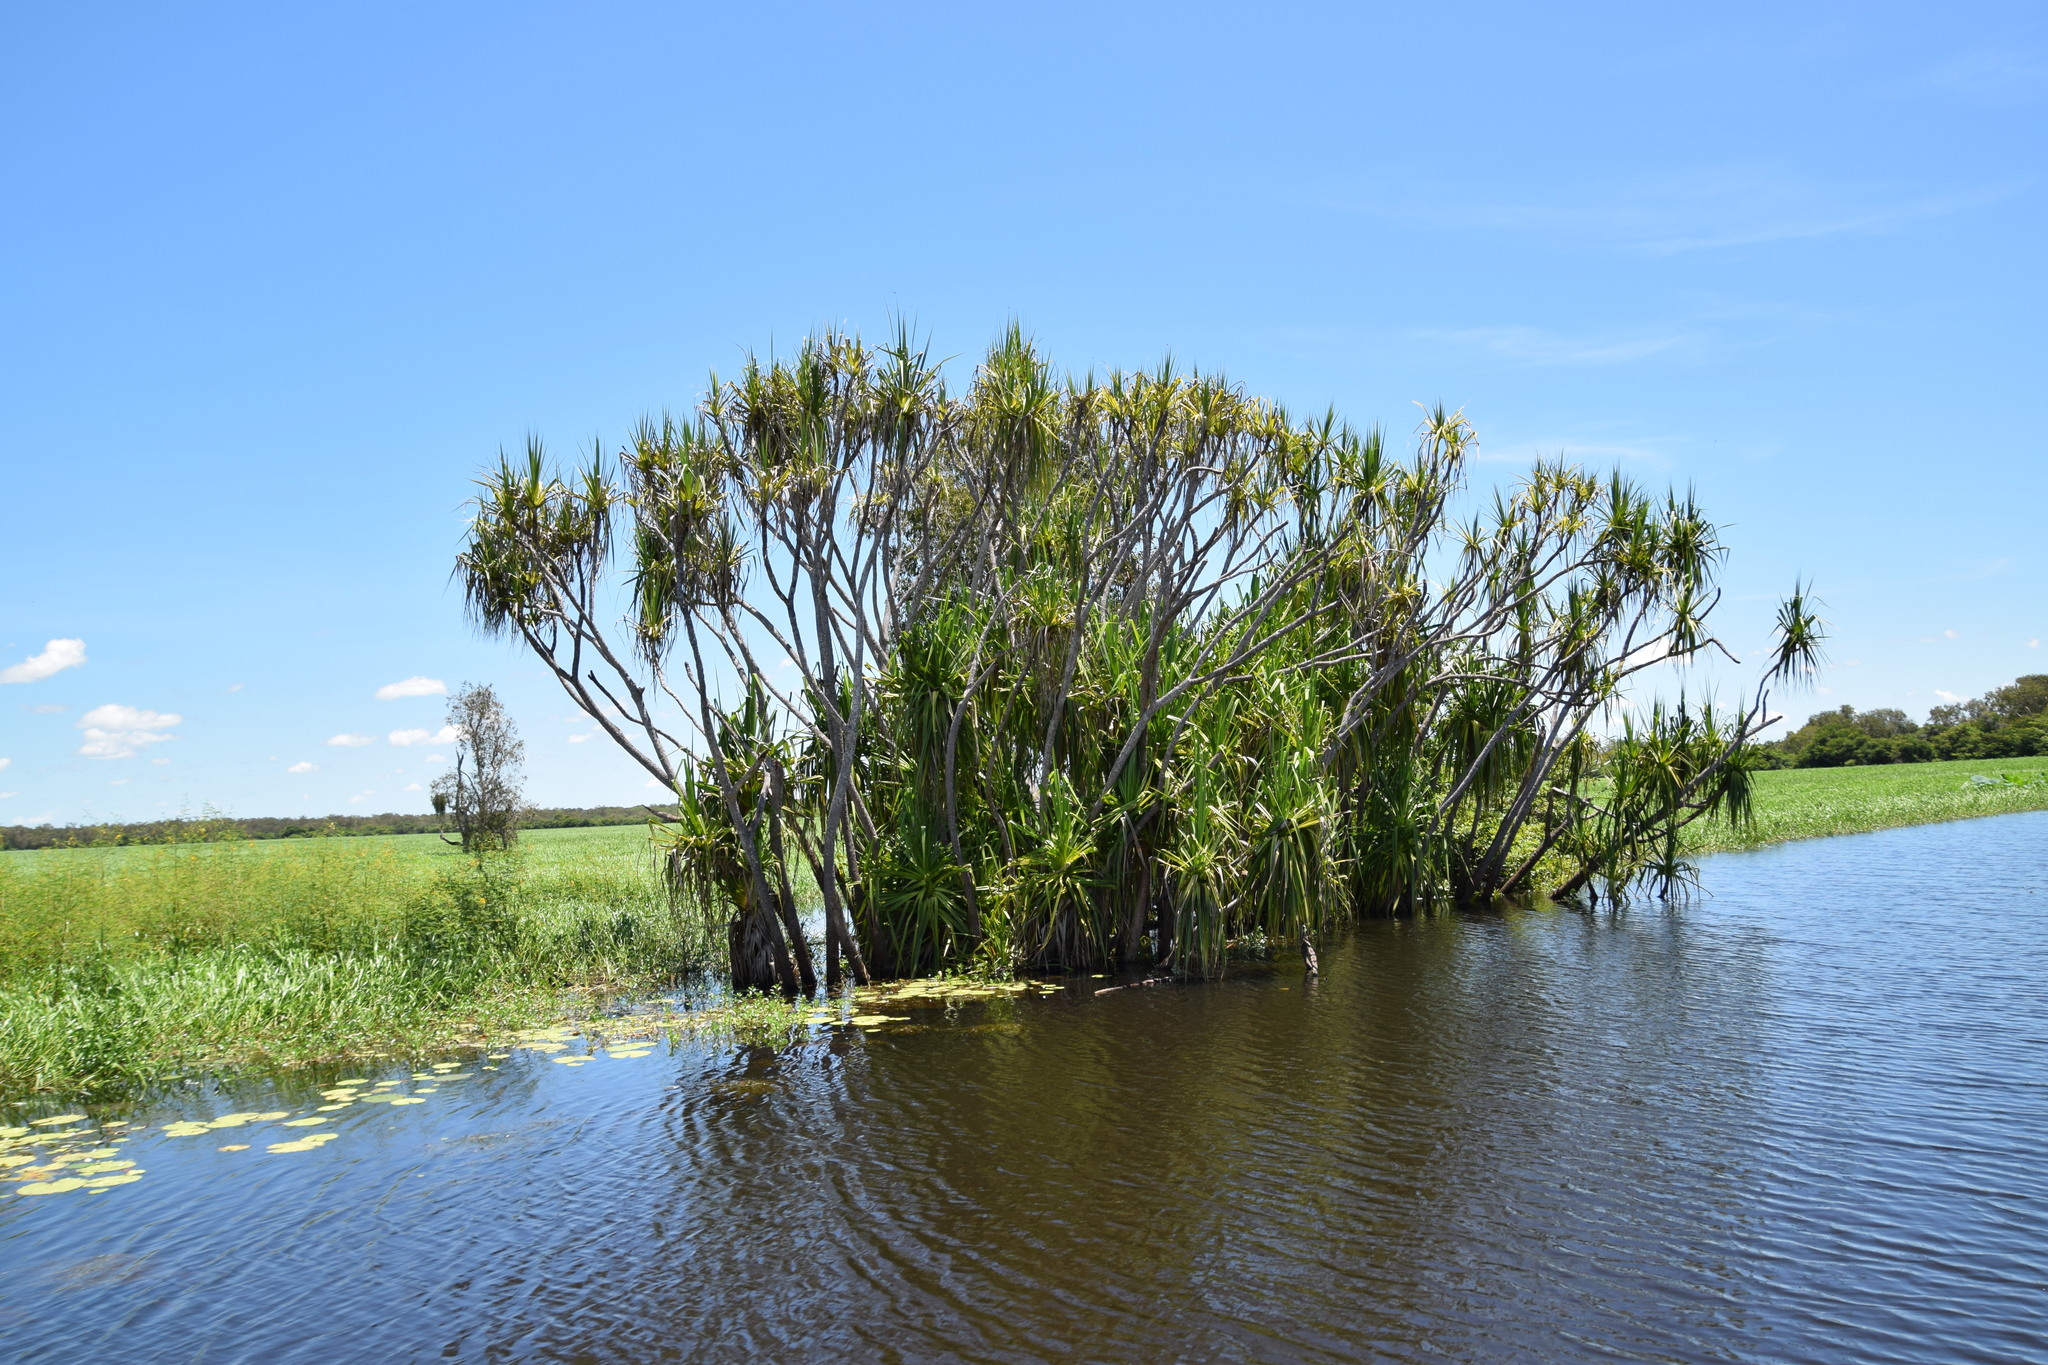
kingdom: Plantae
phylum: Tracheophyta
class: Liliopsida
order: Pandanales
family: Pandanaceae
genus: Pandanus
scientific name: Pandanus aquaticus
